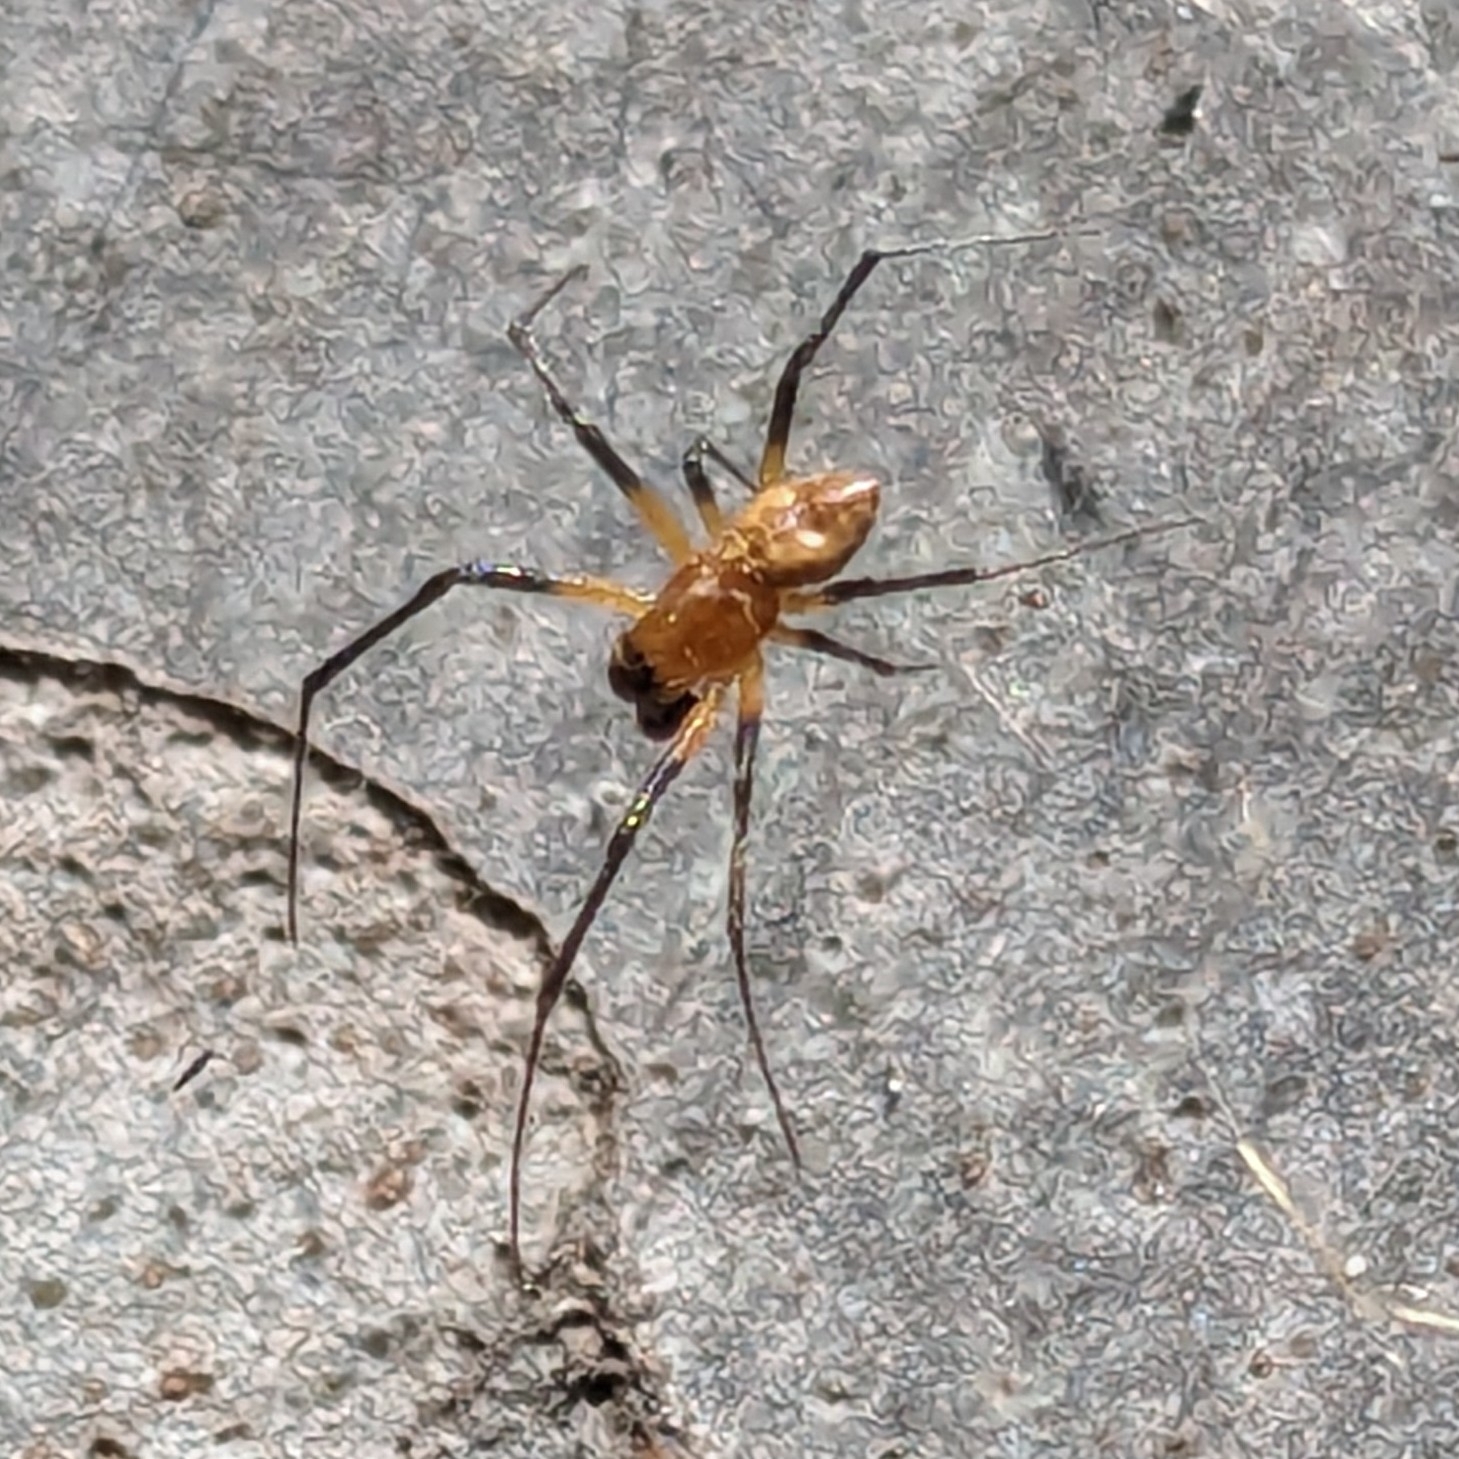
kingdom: Animalia
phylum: Arthropoda
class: Arachnida
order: Araneae
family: Araneidae
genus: Herennia
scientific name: Herennia multipuncta
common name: Spotted coin spider
